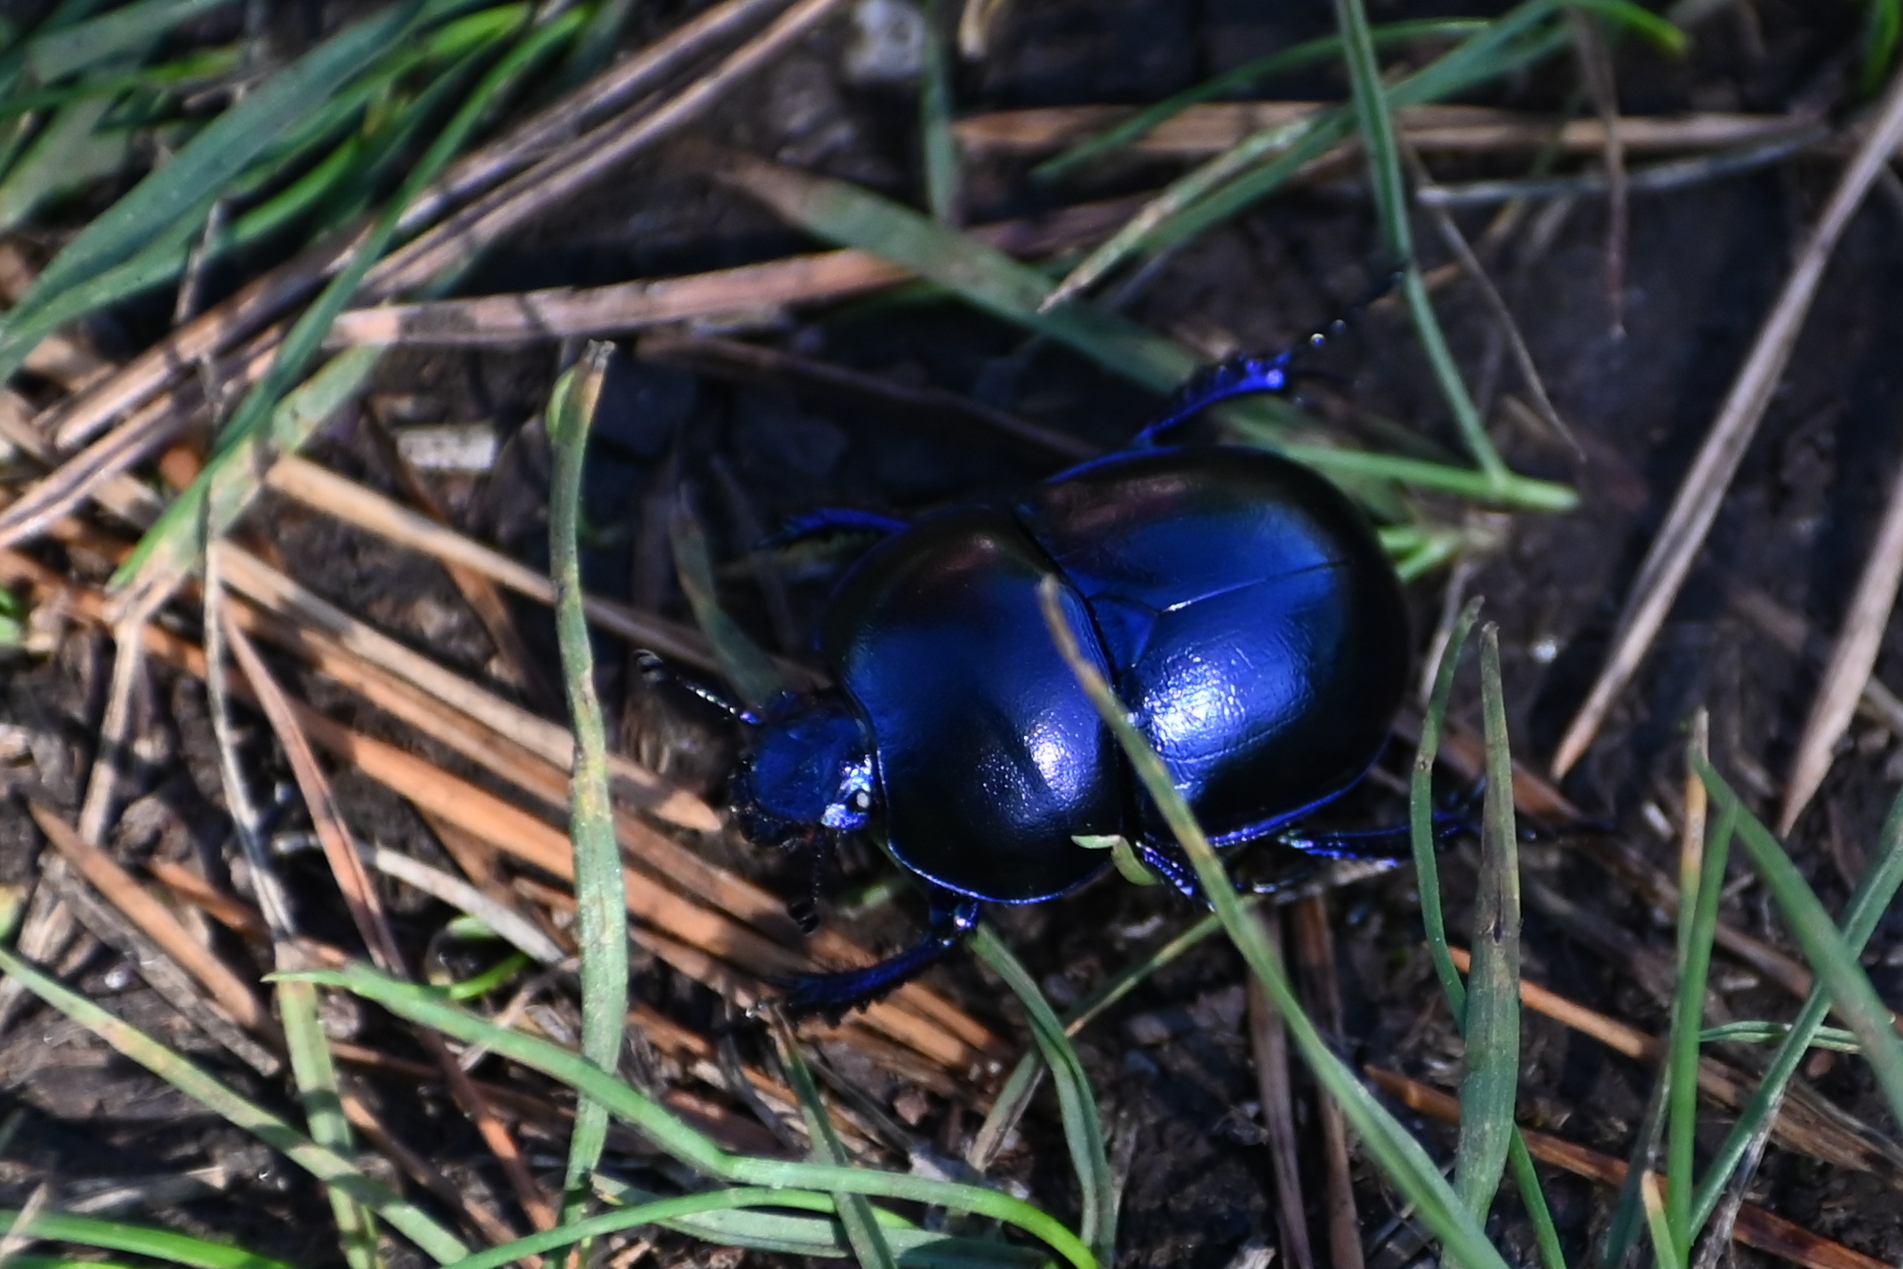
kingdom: Animalia
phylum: Arthropoda
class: Insecta
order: Coleoptera
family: Geotrupidae
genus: Trypocopris
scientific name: Trypocopris vernalis
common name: Spring dumbledor
